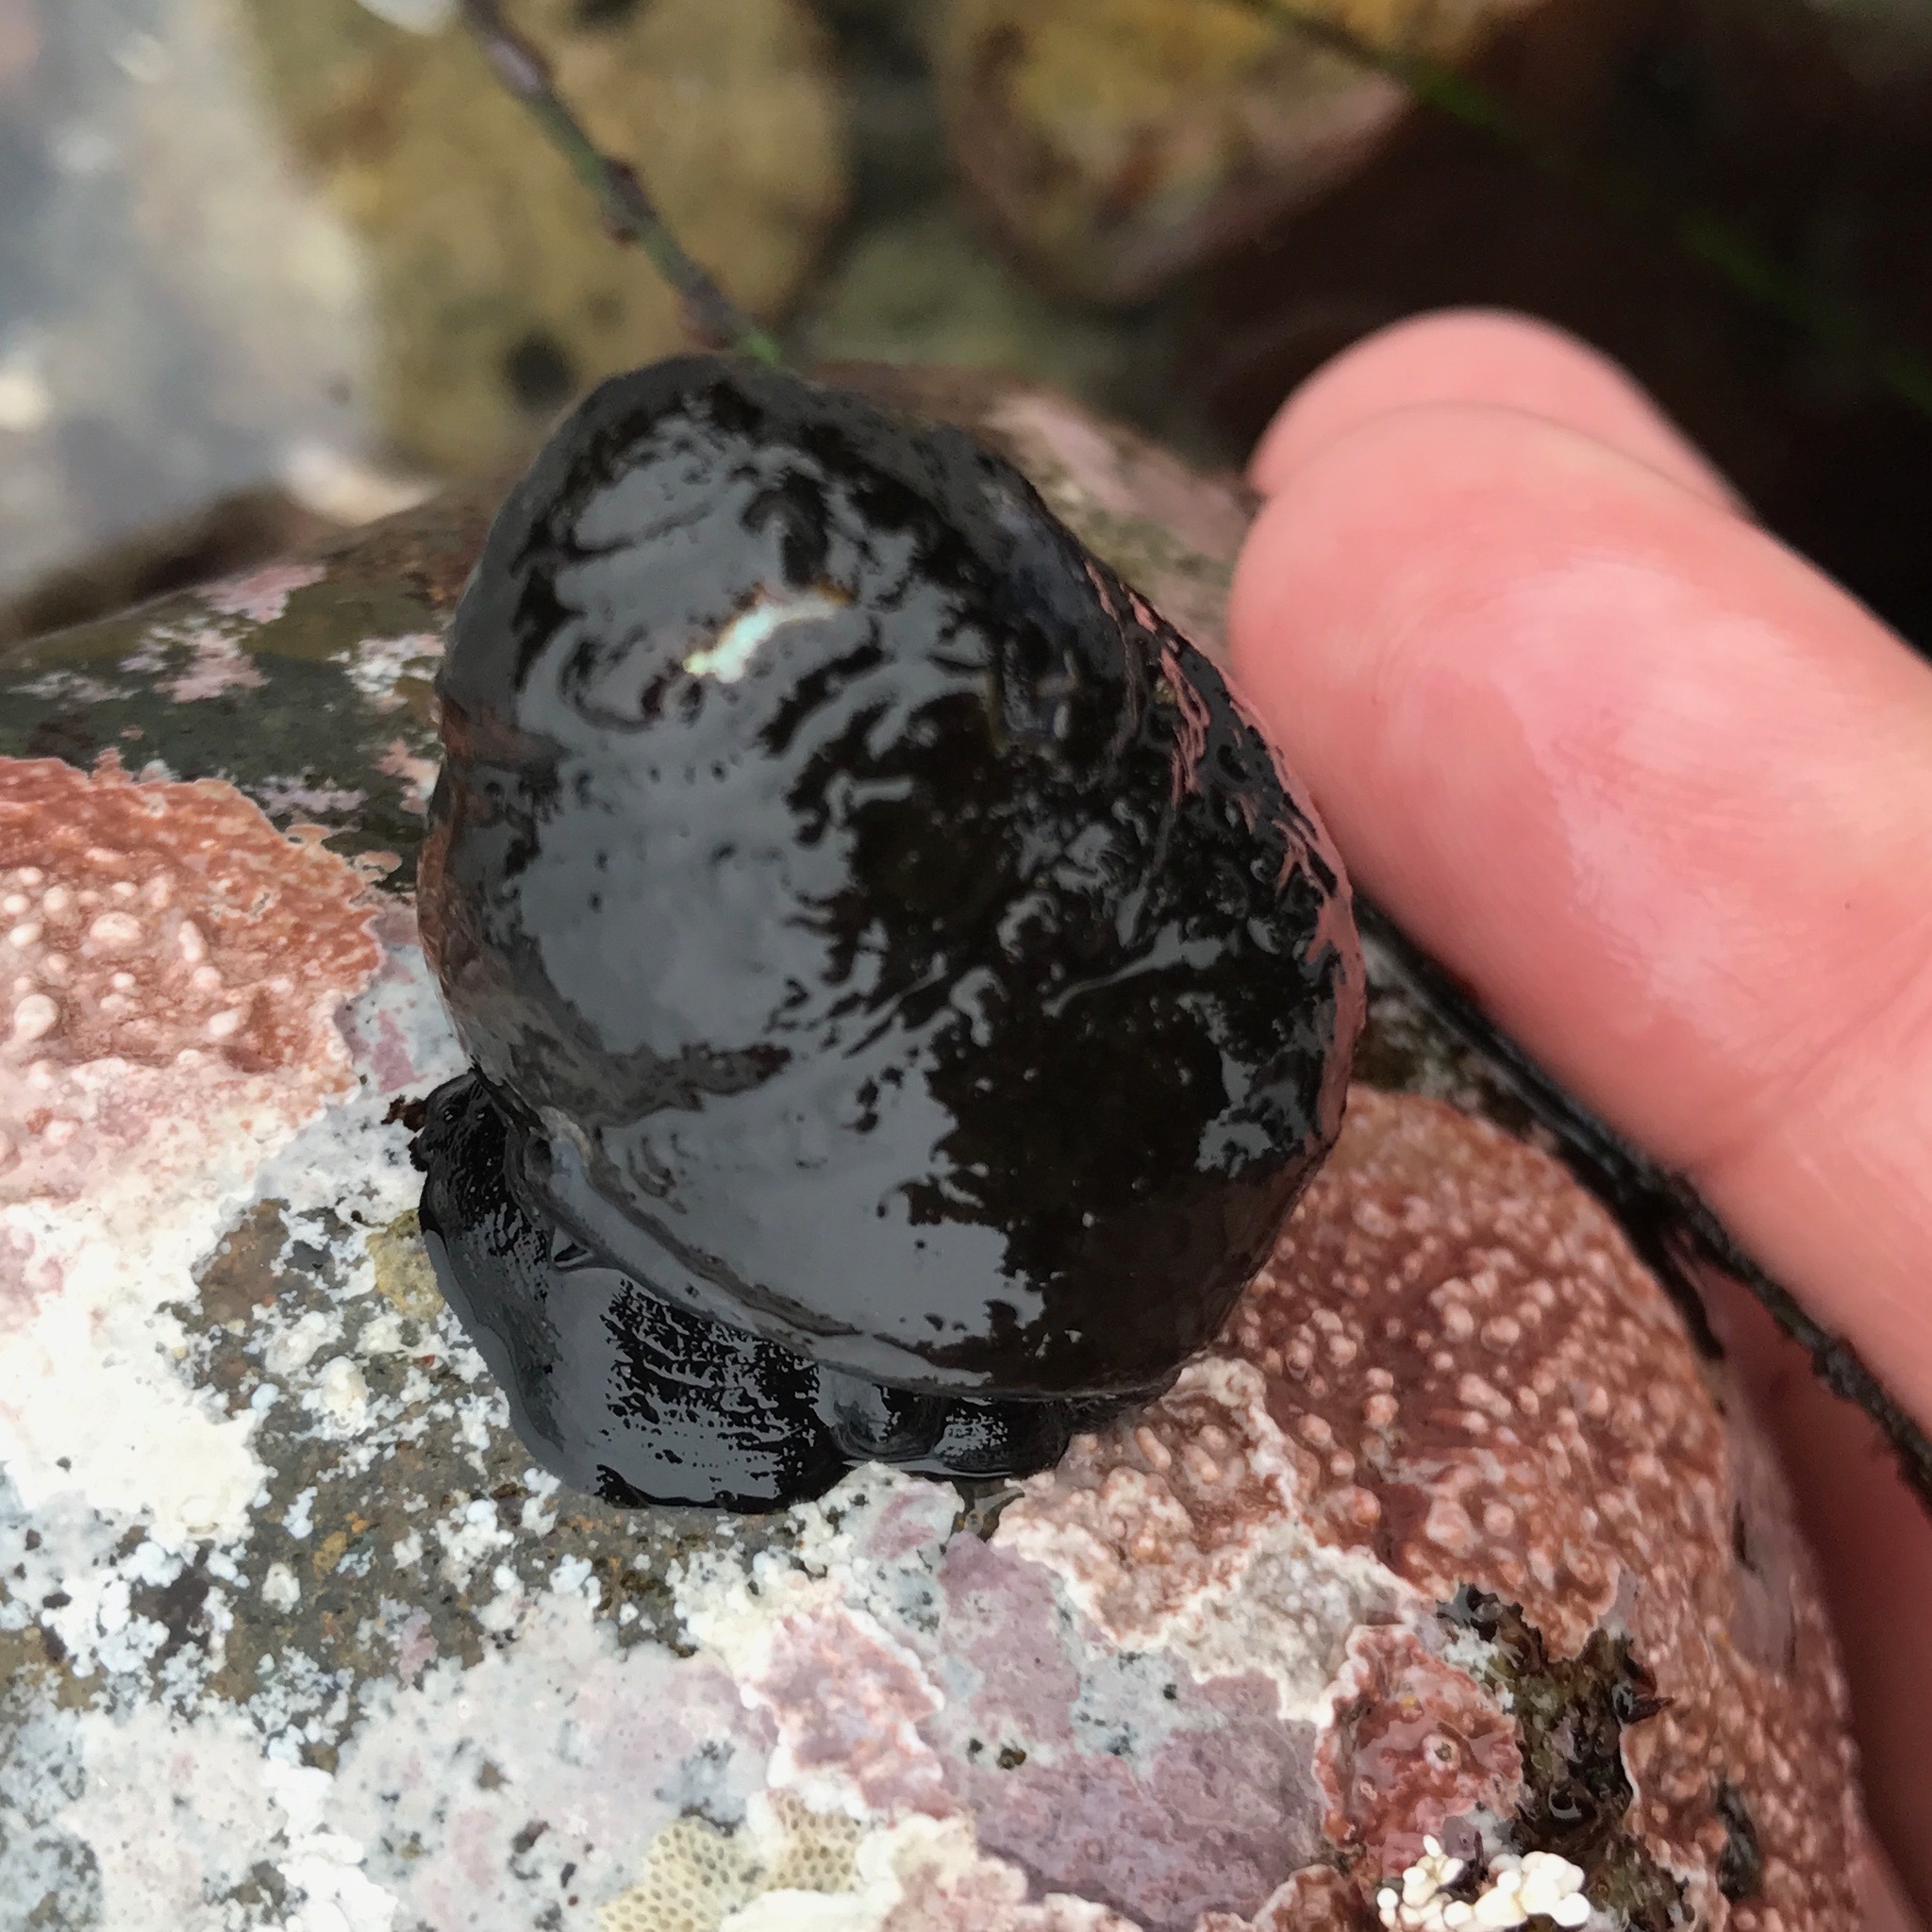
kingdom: Animalia
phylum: Mollusca
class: Gastropoda
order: Trochida
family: Tegulidae
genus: Tegula
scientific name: Tegula funebralis
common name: Black tegula
